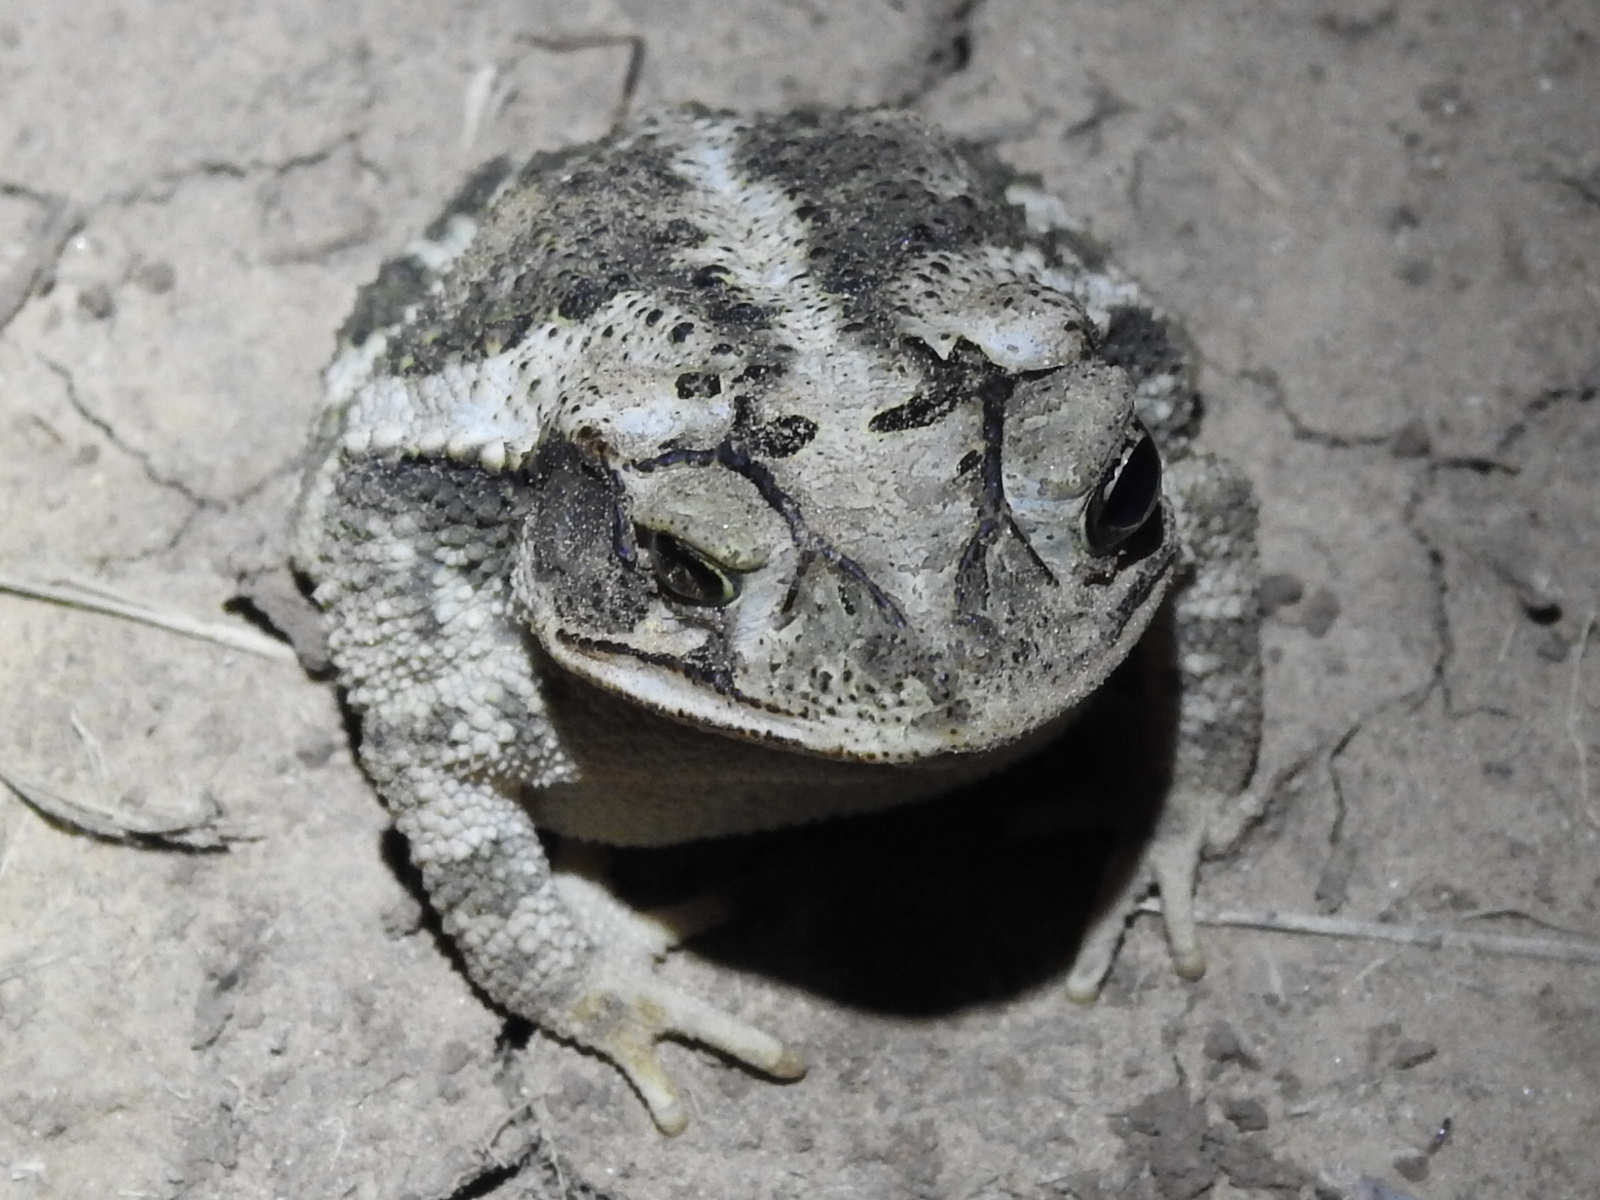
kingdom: Animalia
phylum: Chordata
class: Amphibia
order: Anura
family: Bufonidae
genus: Incilius
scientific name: Incilius nebulifer
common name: Gulf coast toad
